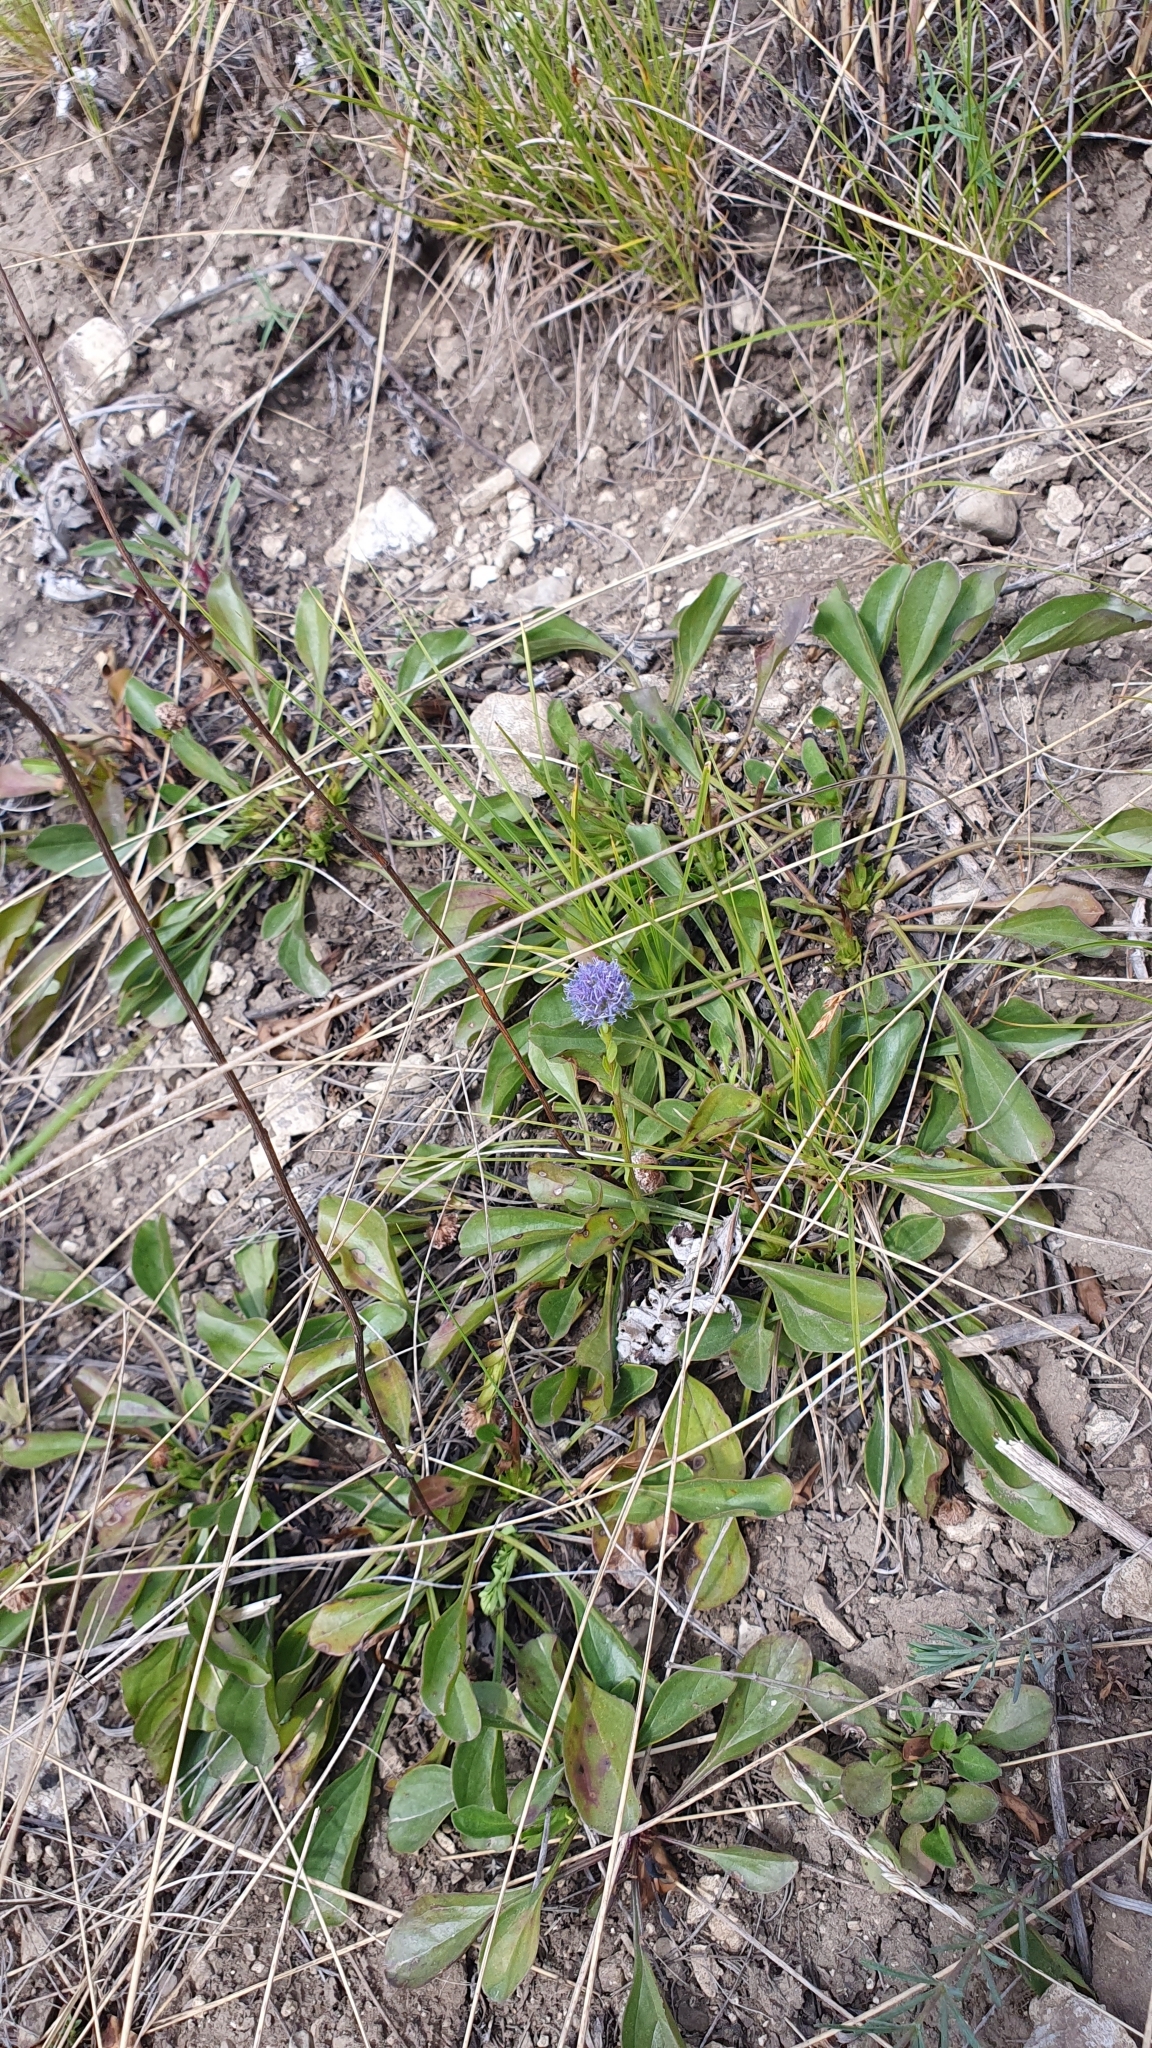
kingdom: Plantae
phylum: Tracheophyta
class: Magnoliopsida
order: Lamiales
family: Plantaginaceae
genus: Globularia
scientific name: Globularia bisnagarica
